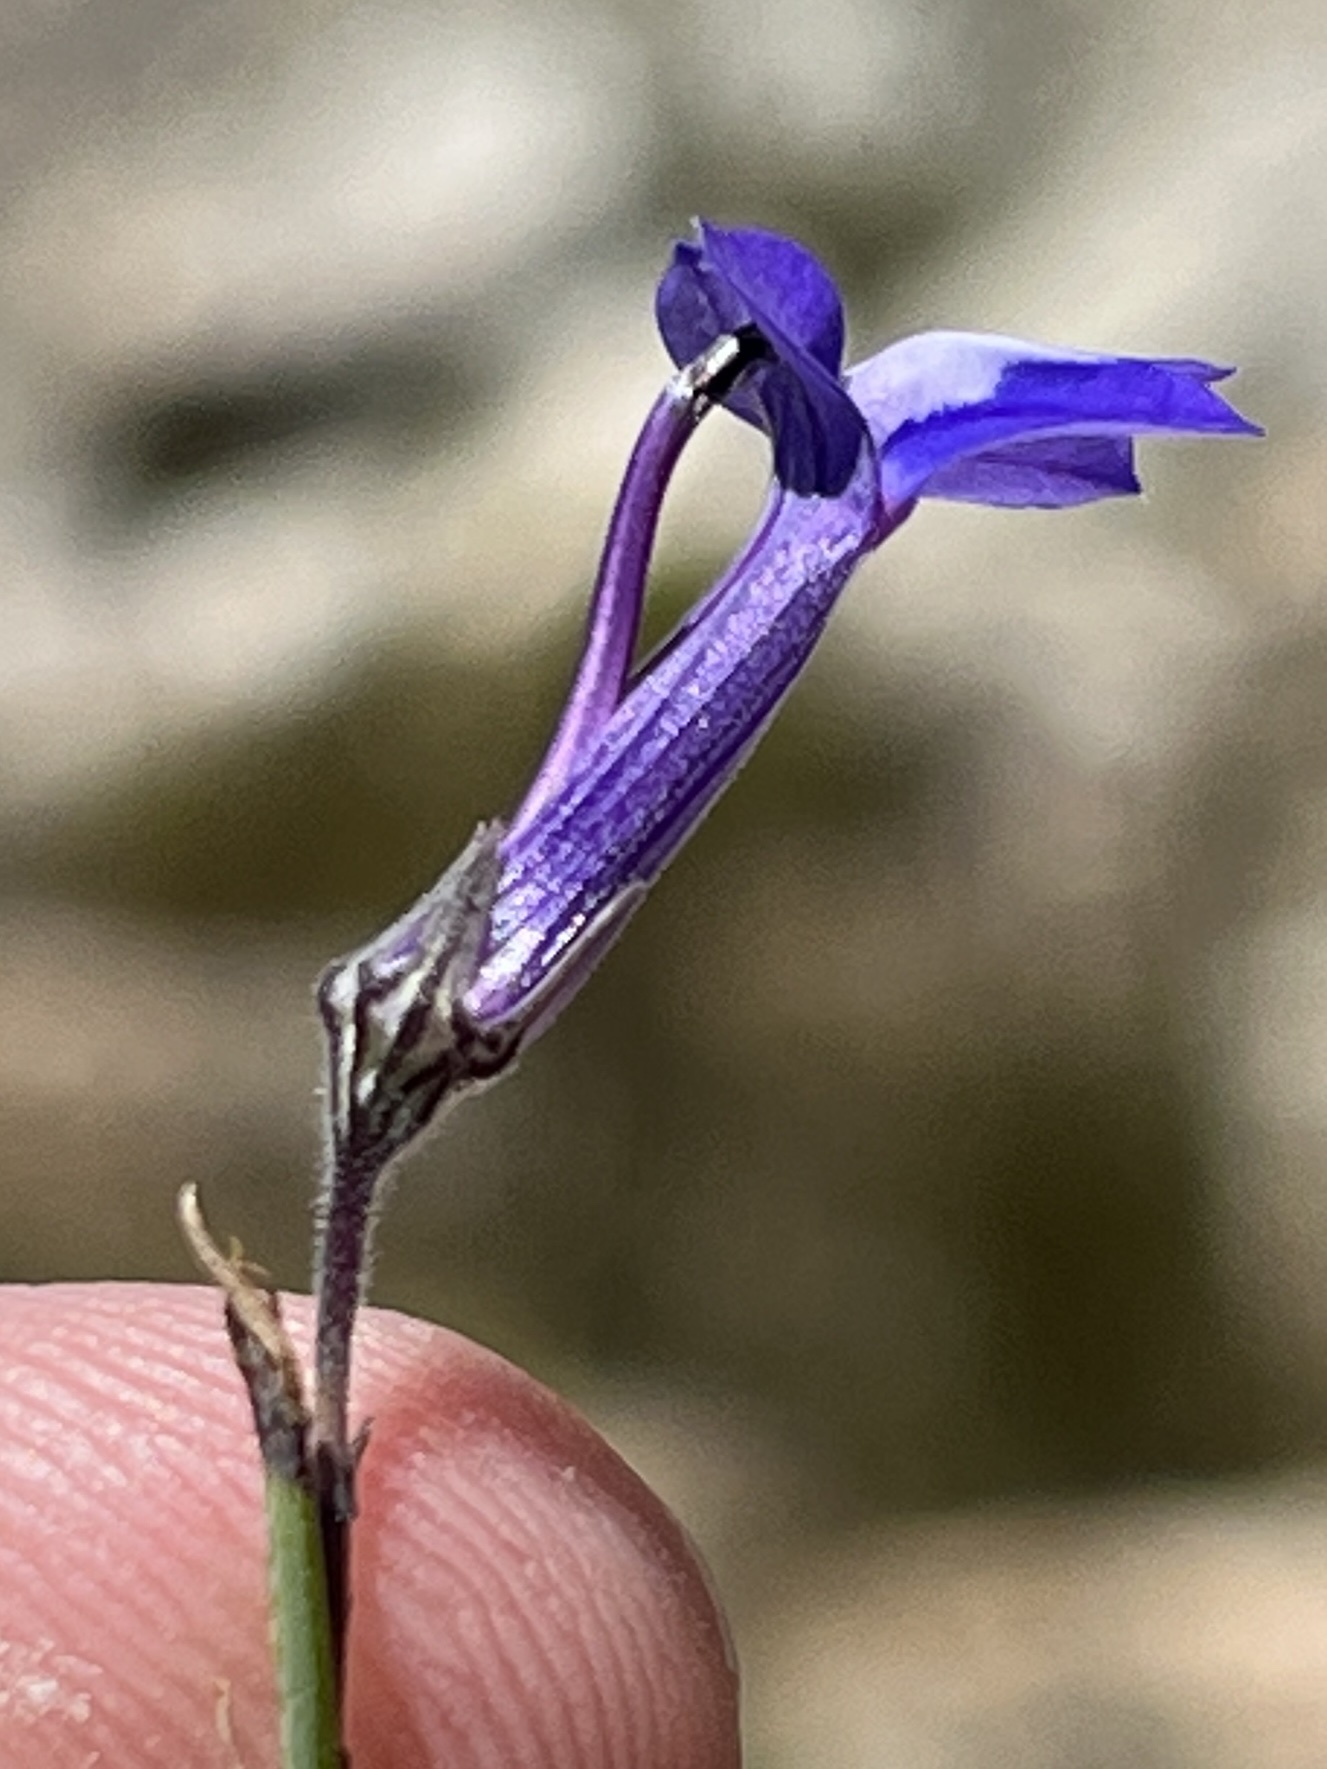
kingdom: Plantae
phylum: Tracheophyta
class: Magnoliopsida
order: Asterales
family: Campanulaceae
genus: Lobelia
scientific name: Lobelia linearis
